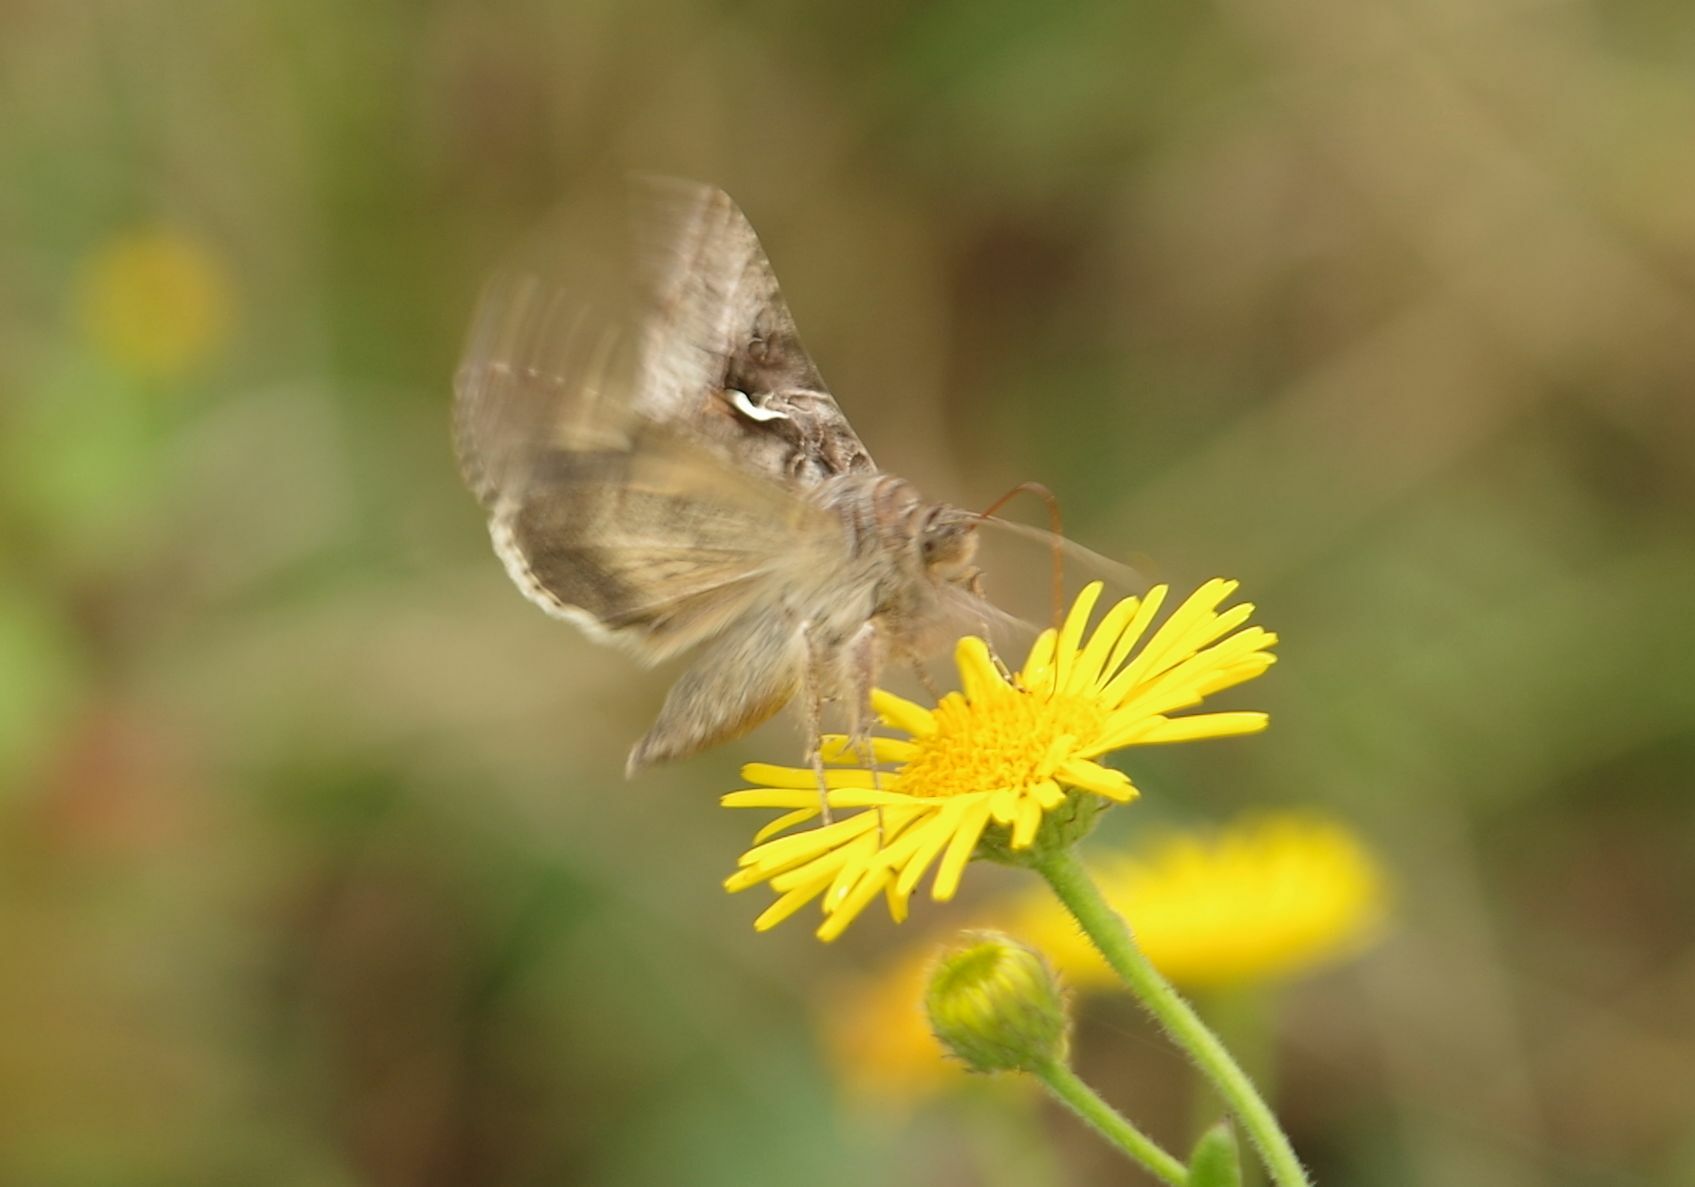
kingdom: Animalia
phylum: Arthropoda
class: Insecta
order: Lepidoptera
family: Noctuidae
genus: Autographa
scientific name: Autographa gamma
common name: Silver y
